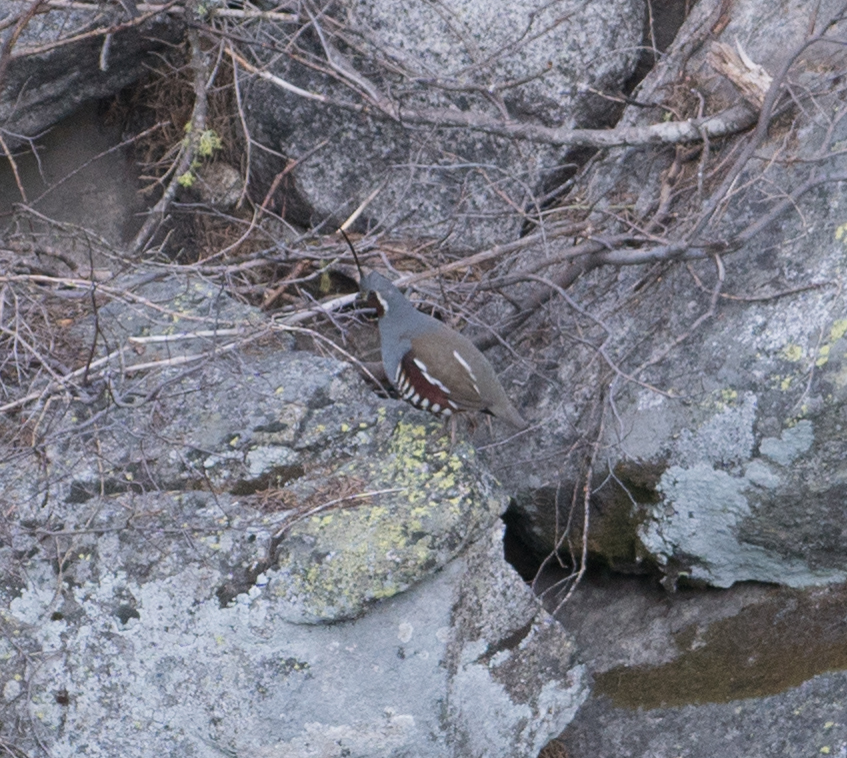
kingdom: Animalia
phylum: Chordata
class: Aves
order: Galliformes
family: Odontophoridae
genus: Oreortyx
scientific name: Oreortyx pictus
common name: Mountain quail
